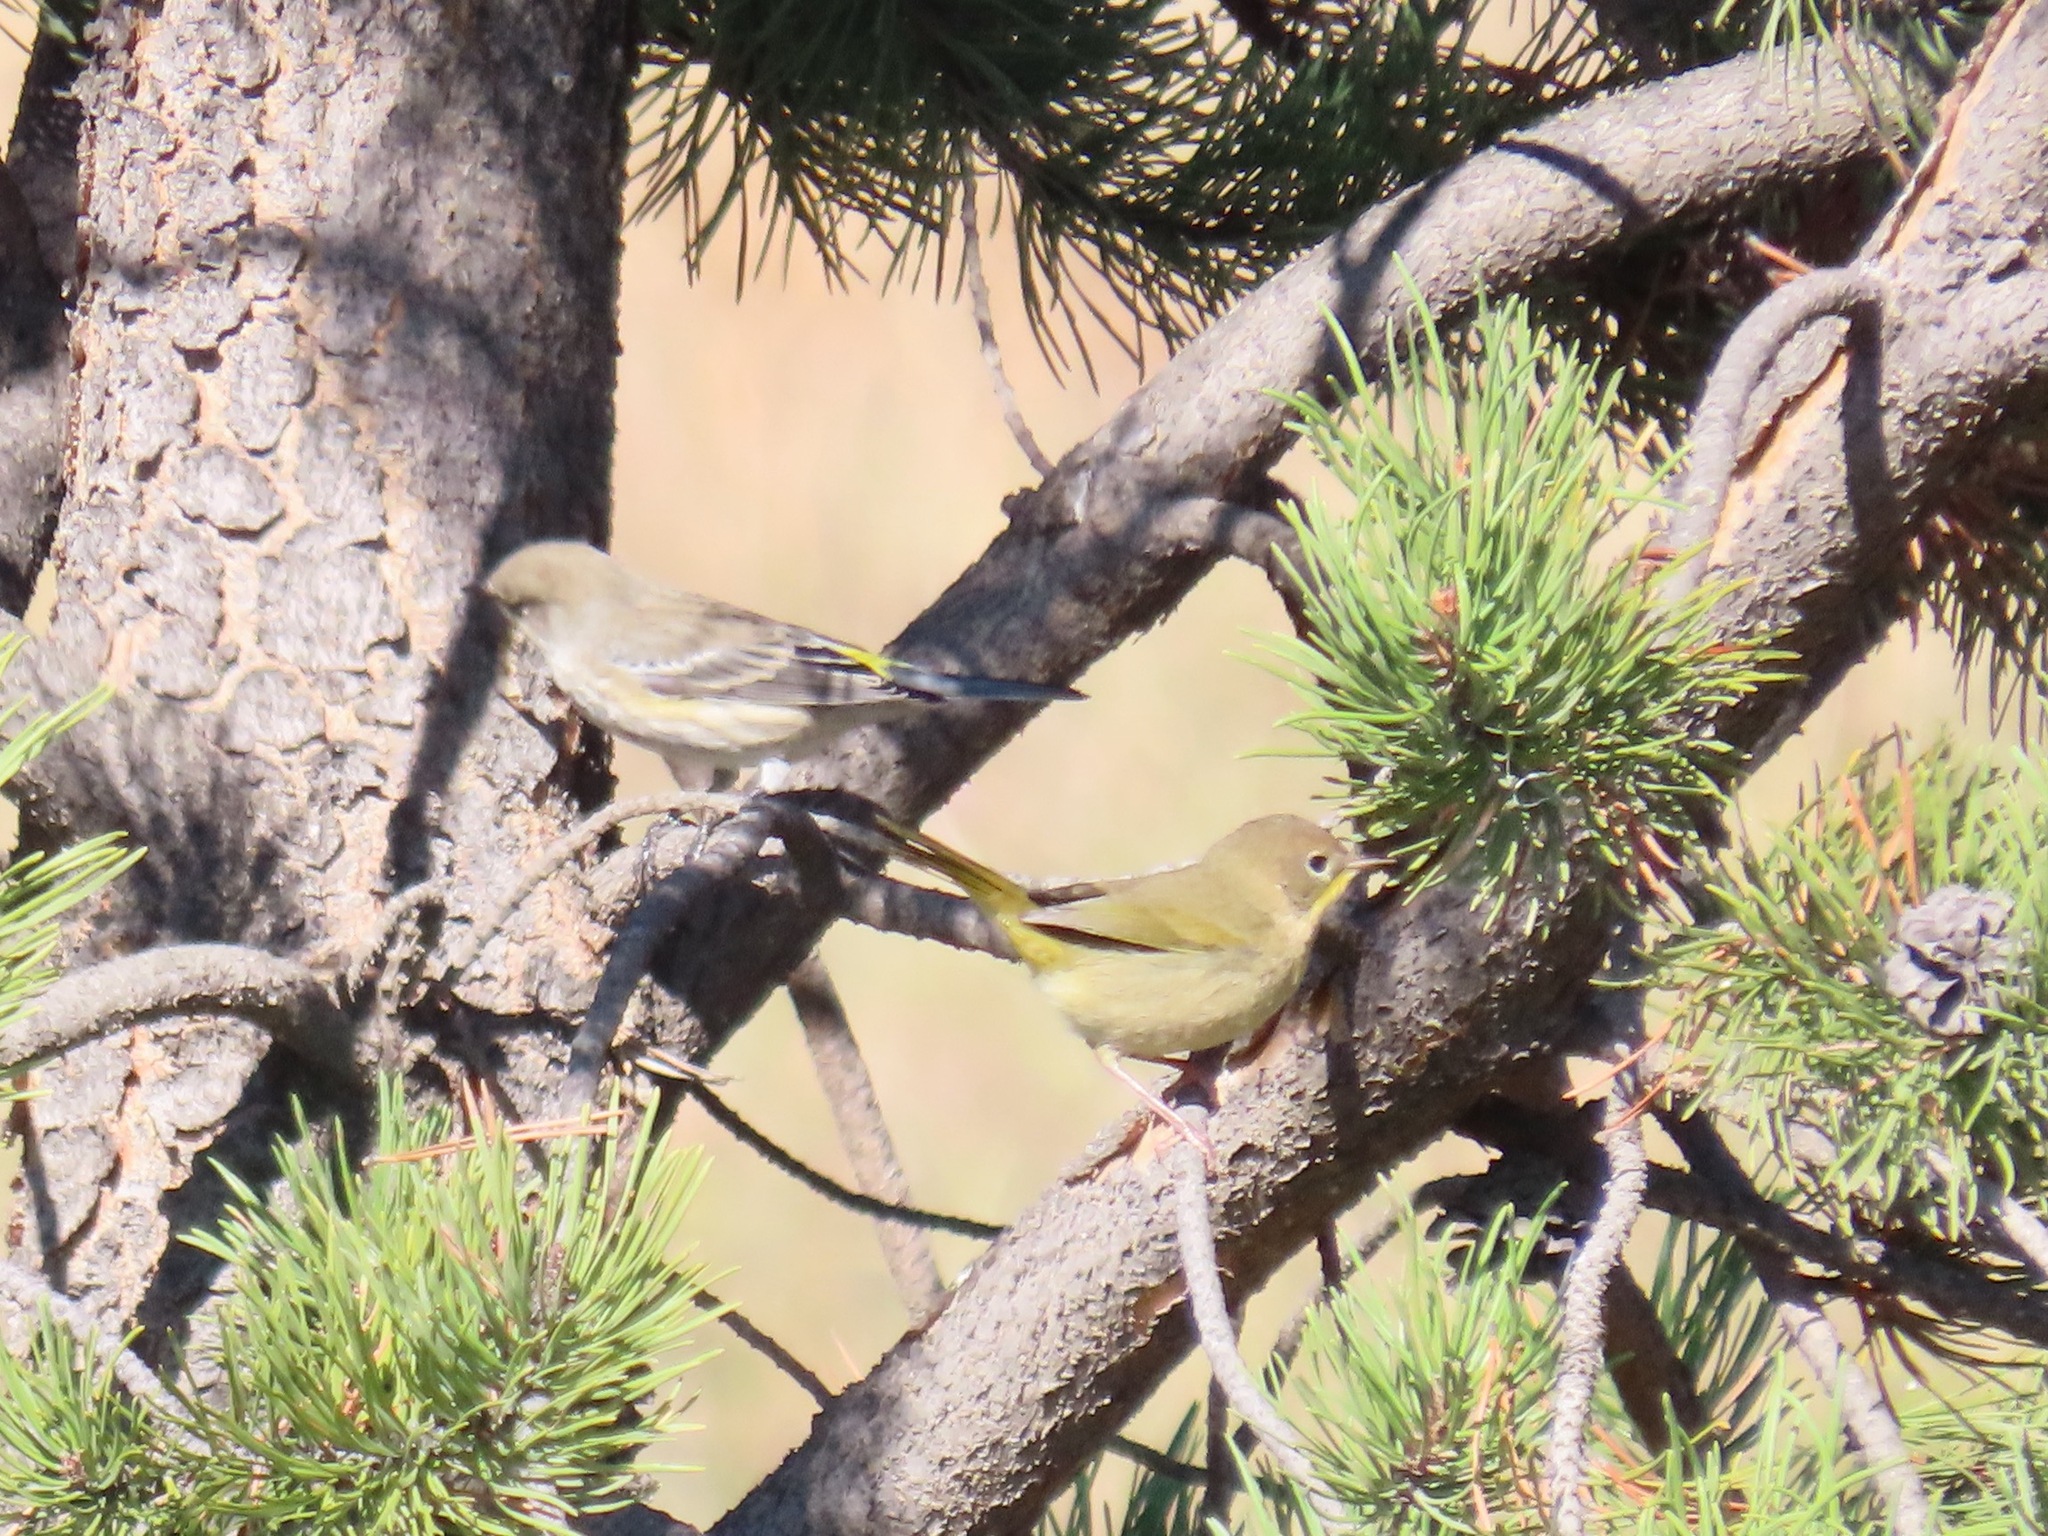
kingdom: Animalia
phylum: Chordata
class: Aves
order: Passeriformes
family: Parulidae
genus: Setophaga
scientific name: Setophaga coronata
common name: Myrtle warbler
